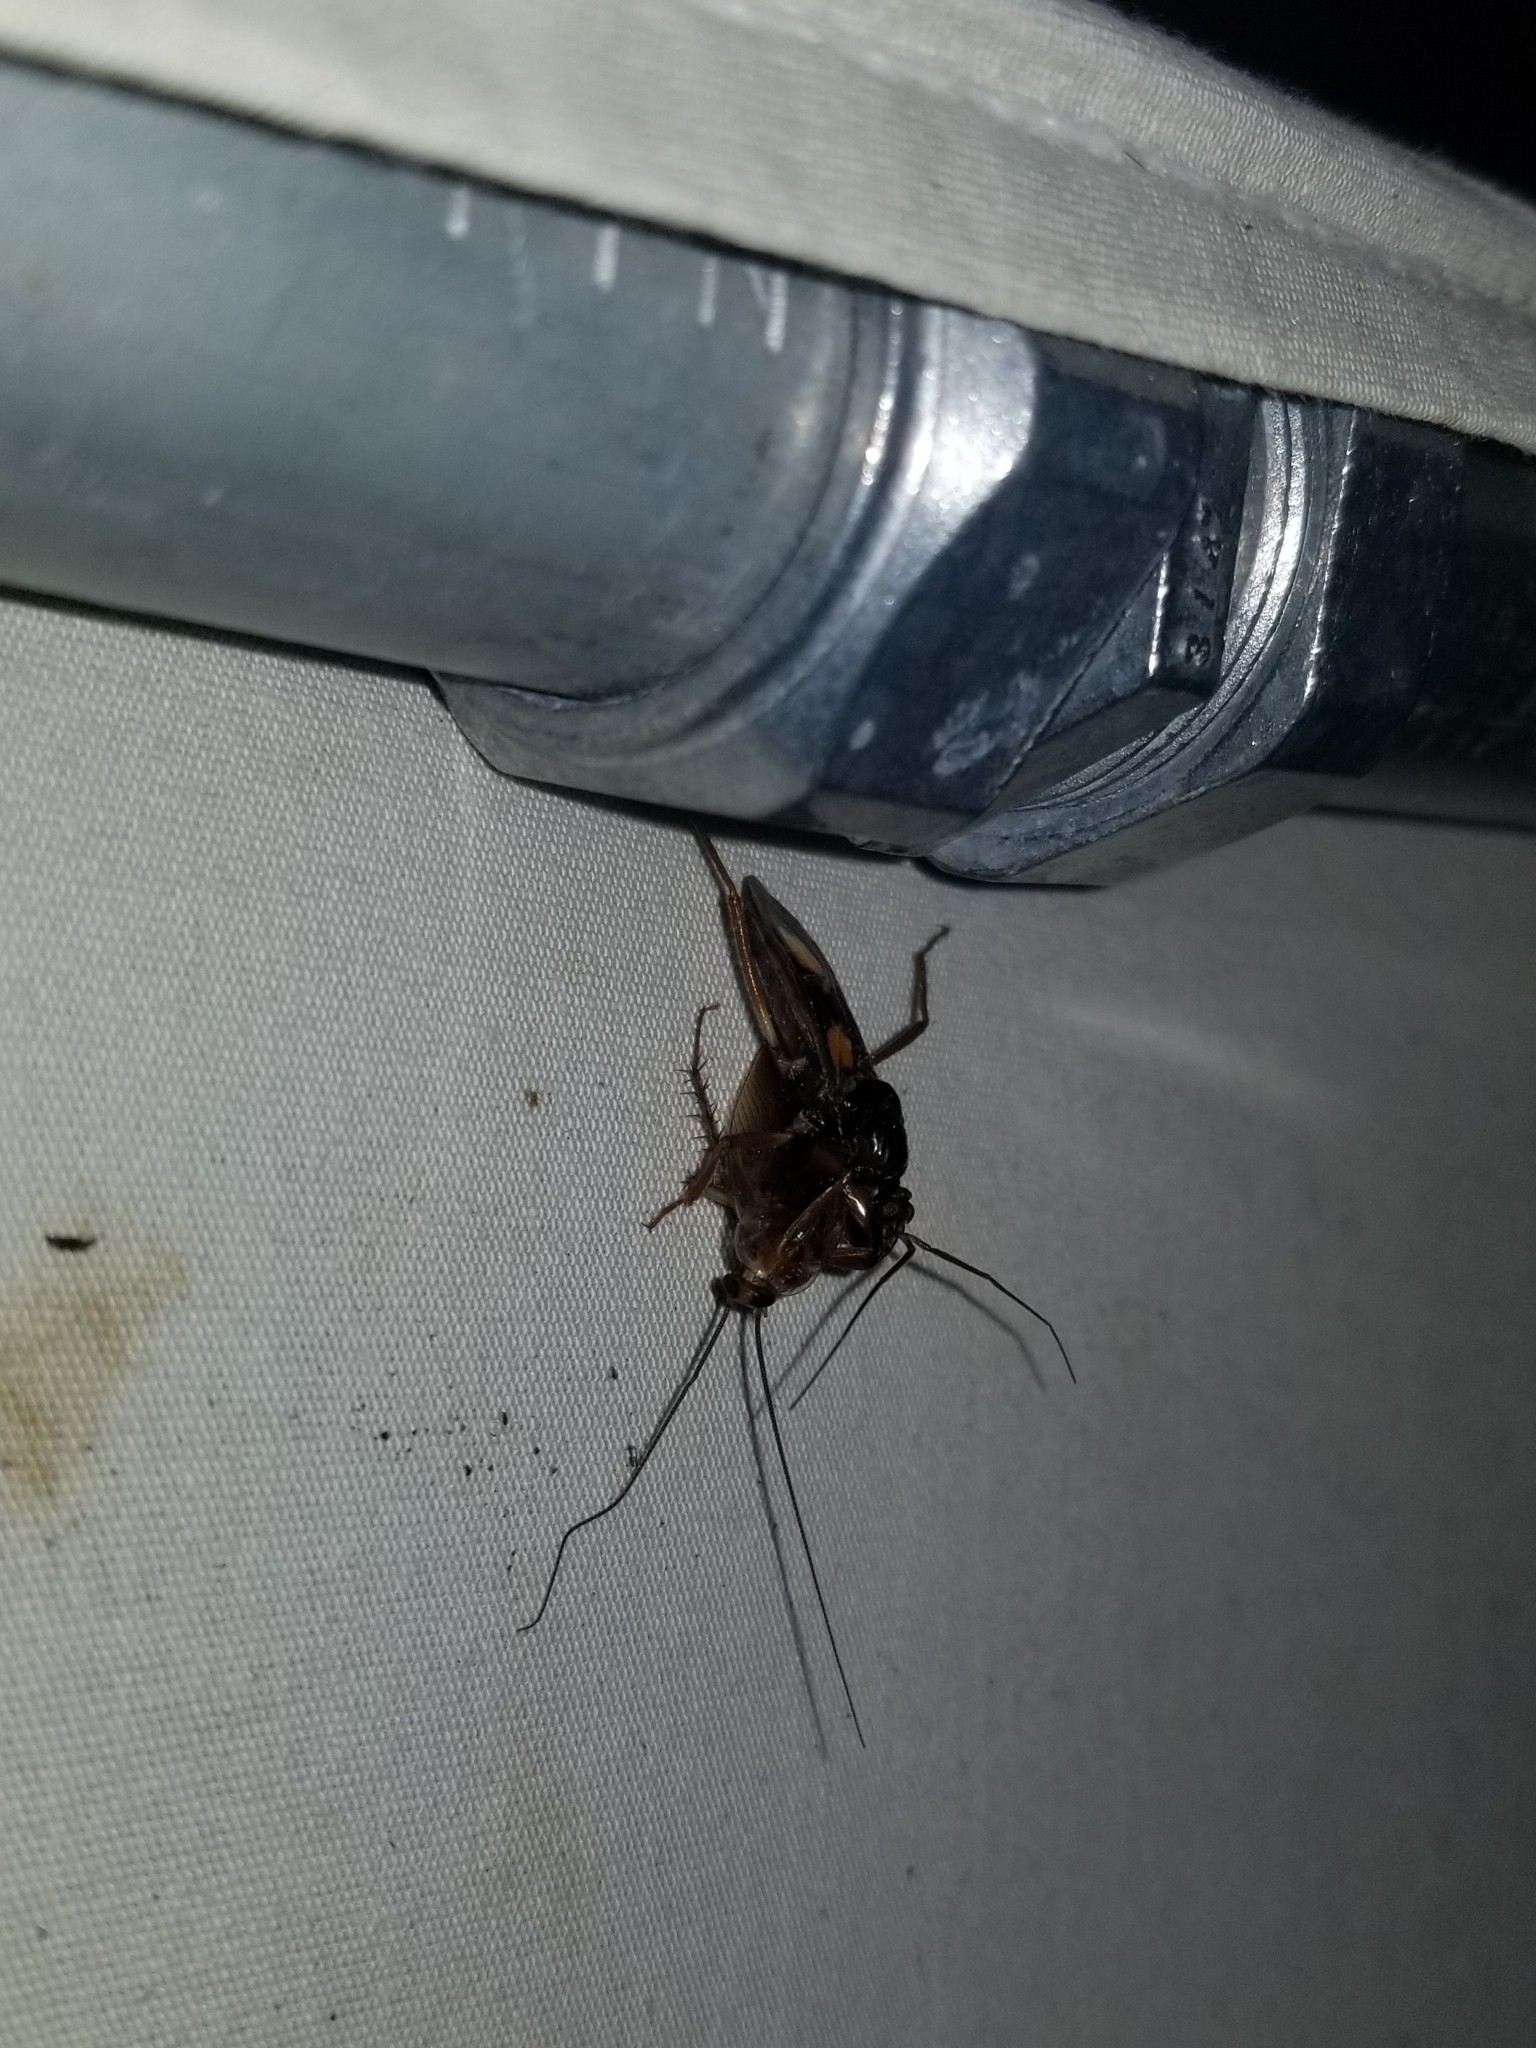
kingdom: Animalia
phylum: Arthropoda
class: Insecta
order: Hemiptera
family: Reduviidae
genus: Rasahus
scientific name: Rasahus hamatus
